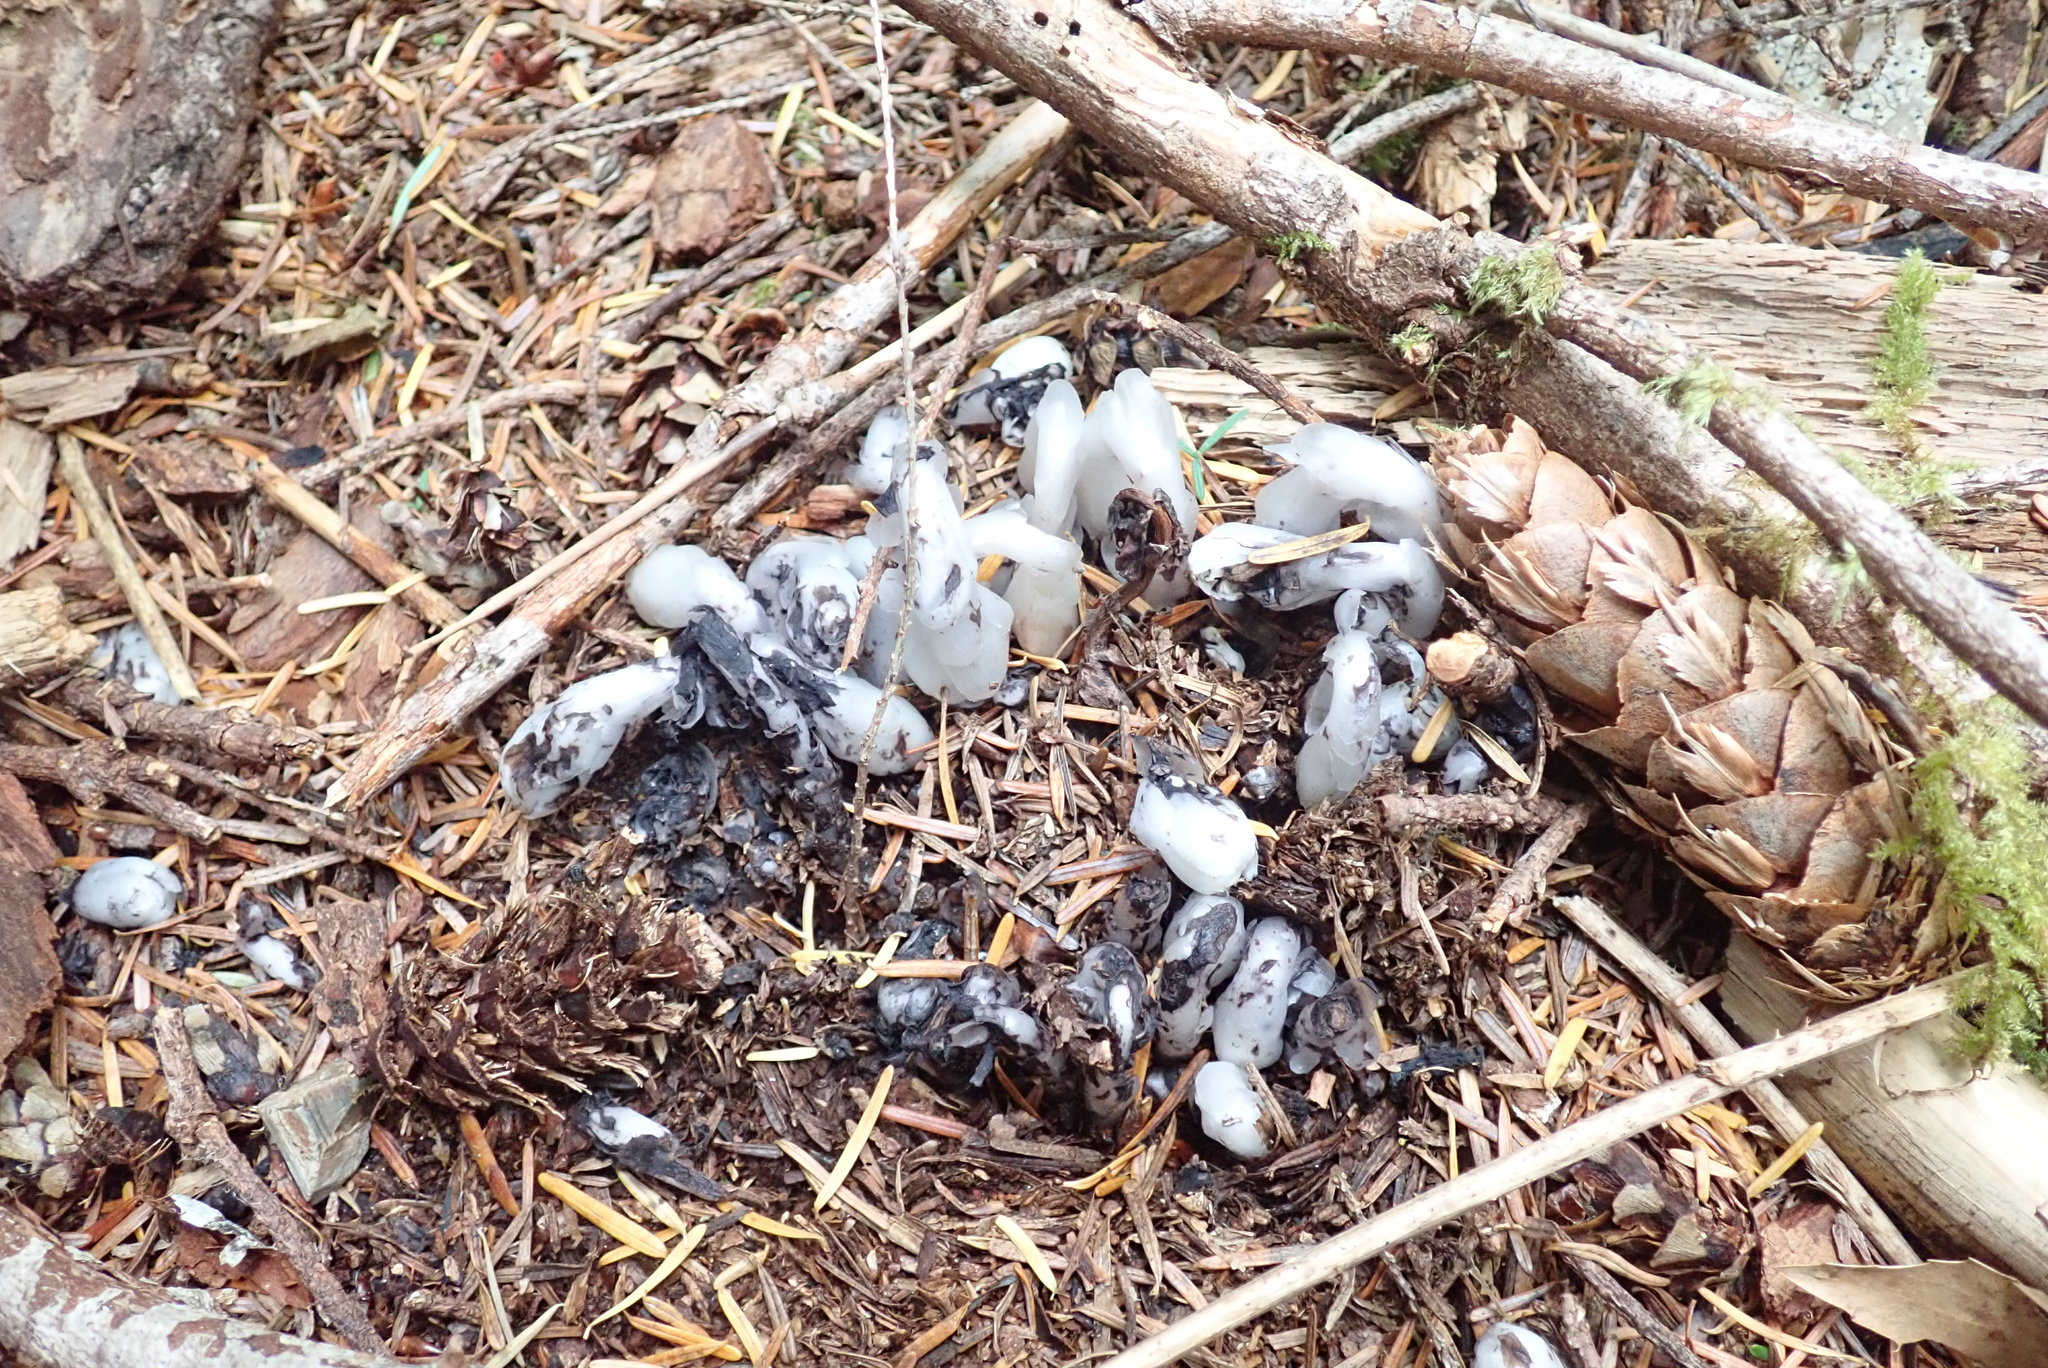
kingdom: Plantae
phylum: Tracheophyta
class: Magnoliopsida
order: Ericales
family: Ericaceae
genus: Monotropa
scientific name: Monotropa uniflora
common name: Convulsion root
